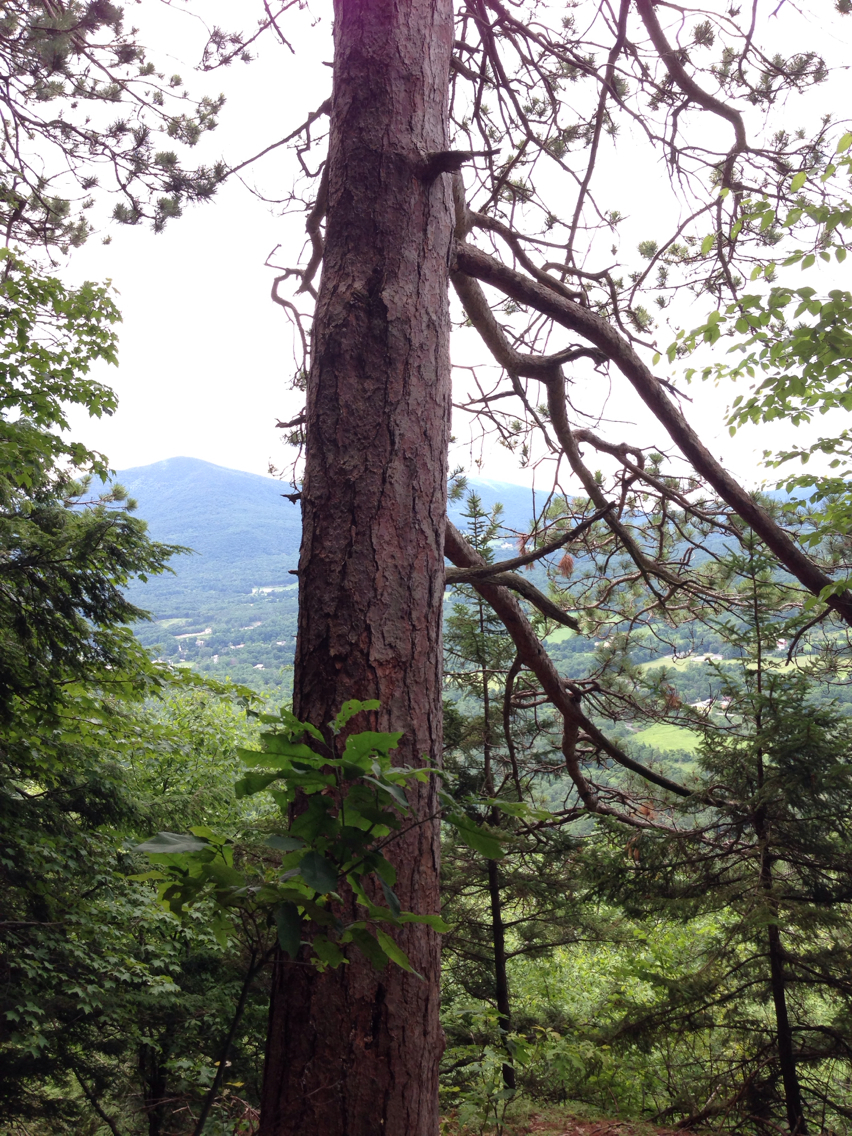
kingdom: Plantae
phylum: Tracheophyta
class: Pinopsida
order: Pinales
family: Pinaceae
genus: Pinus
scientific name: Pinus resinosa
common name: Norway pine
